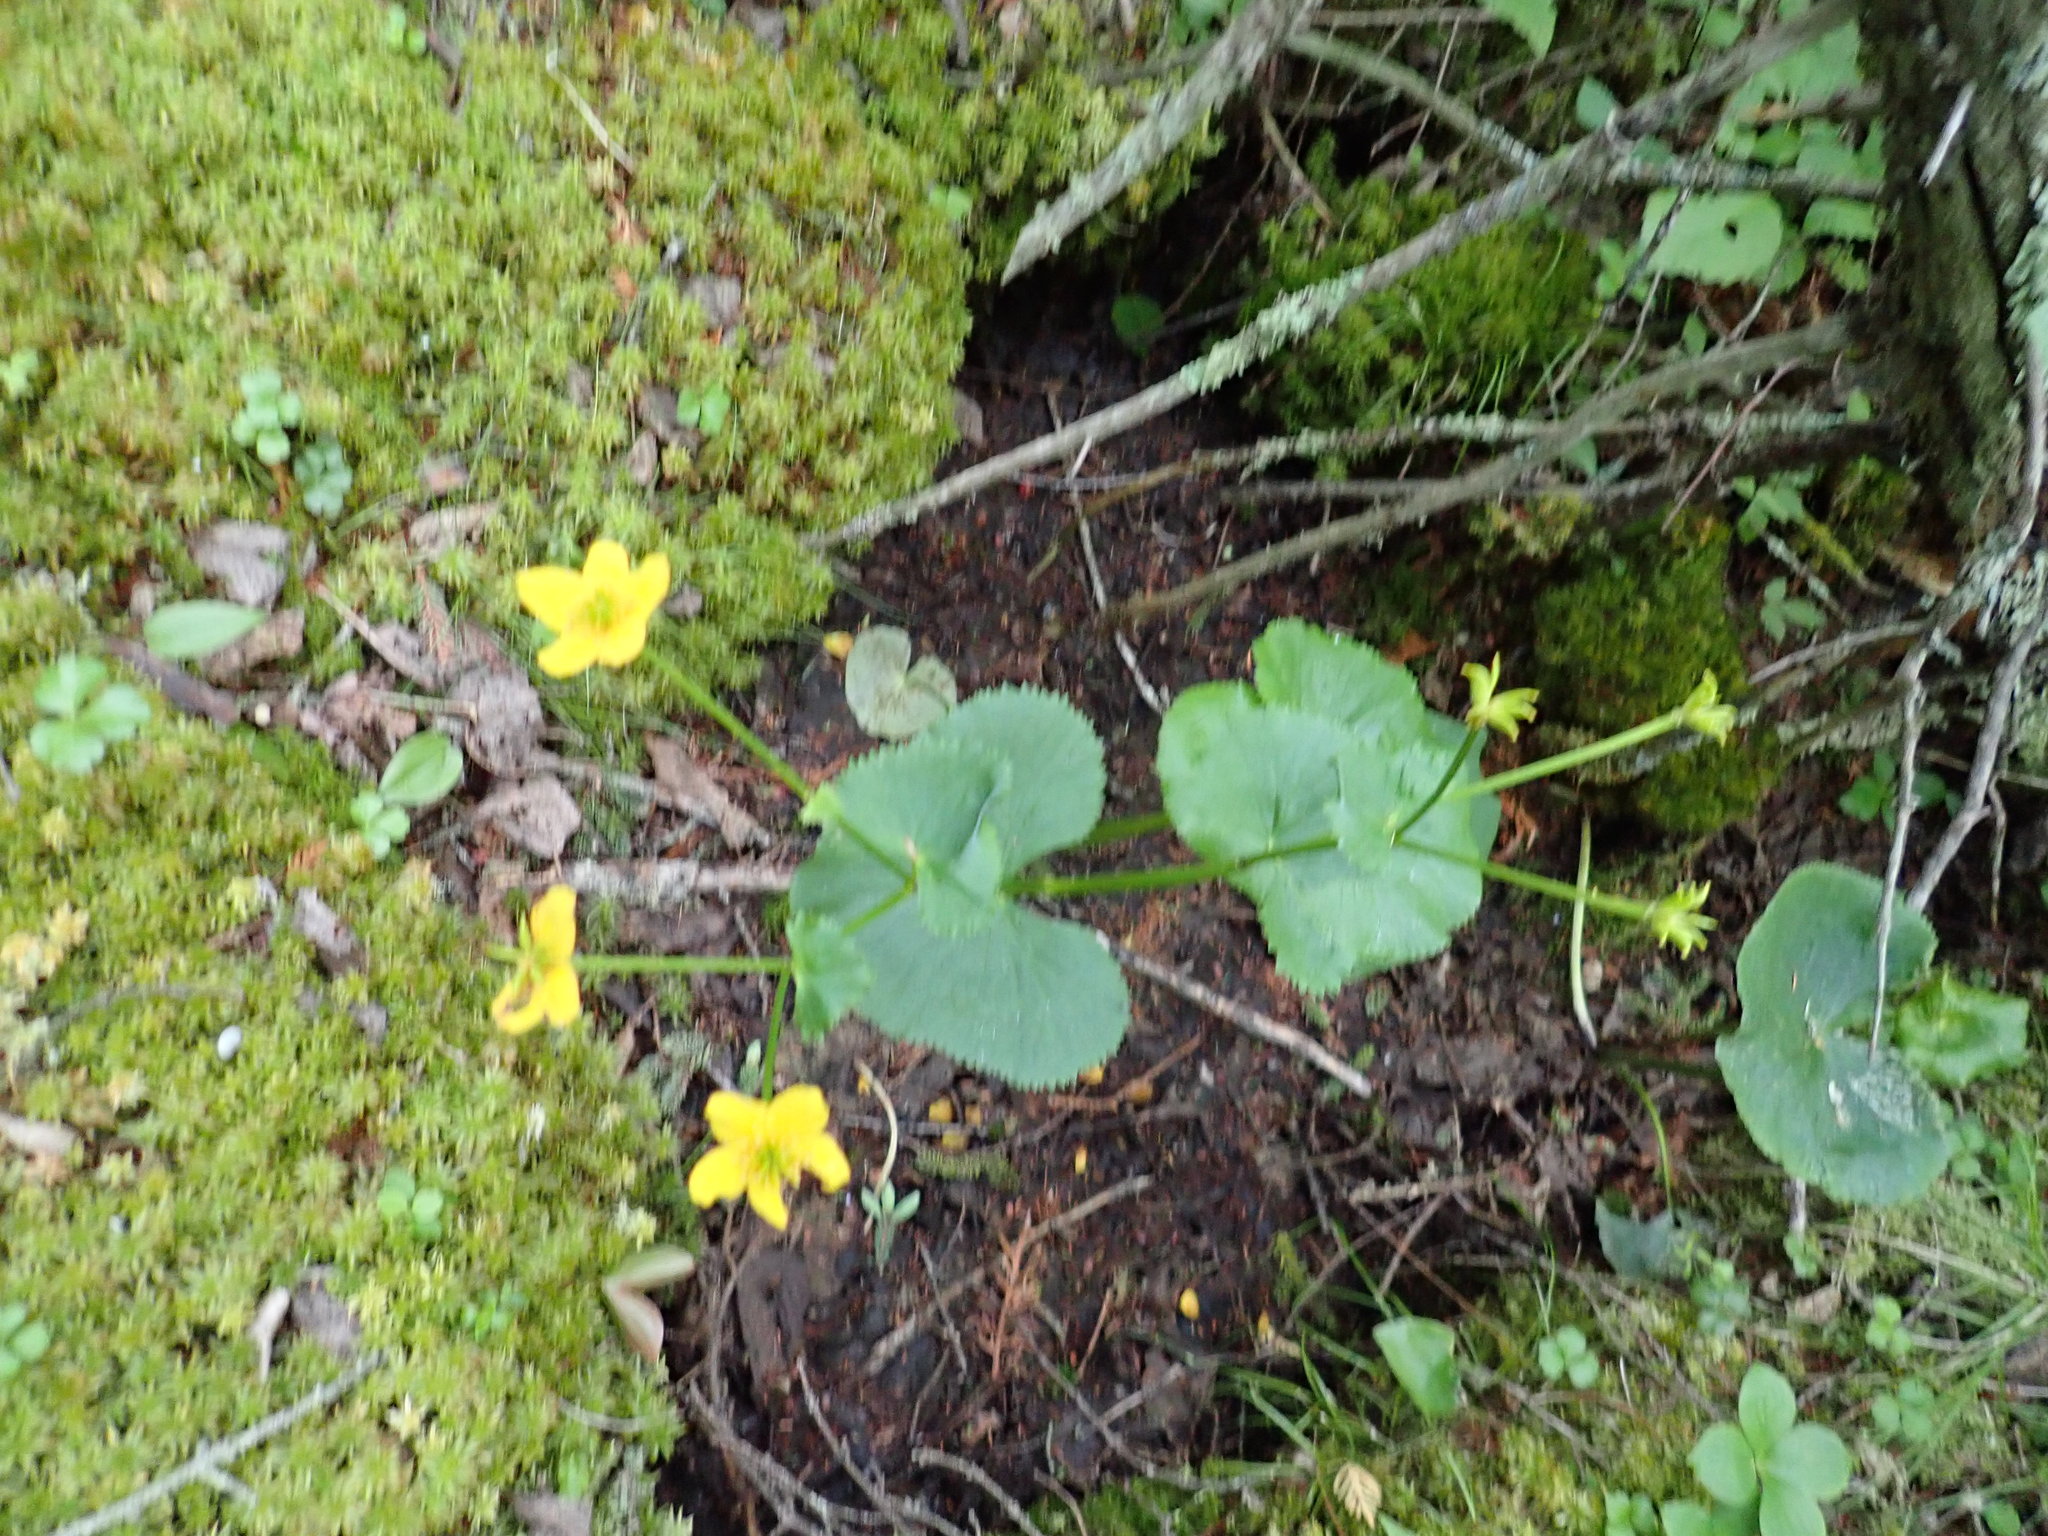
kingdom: Plantae
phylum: Tracheophyta
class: Magnoliopsida
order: Ranunculales
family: Ranunculaceae
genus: Caltha
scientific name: Caltha palustris
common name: Marsh marigold
